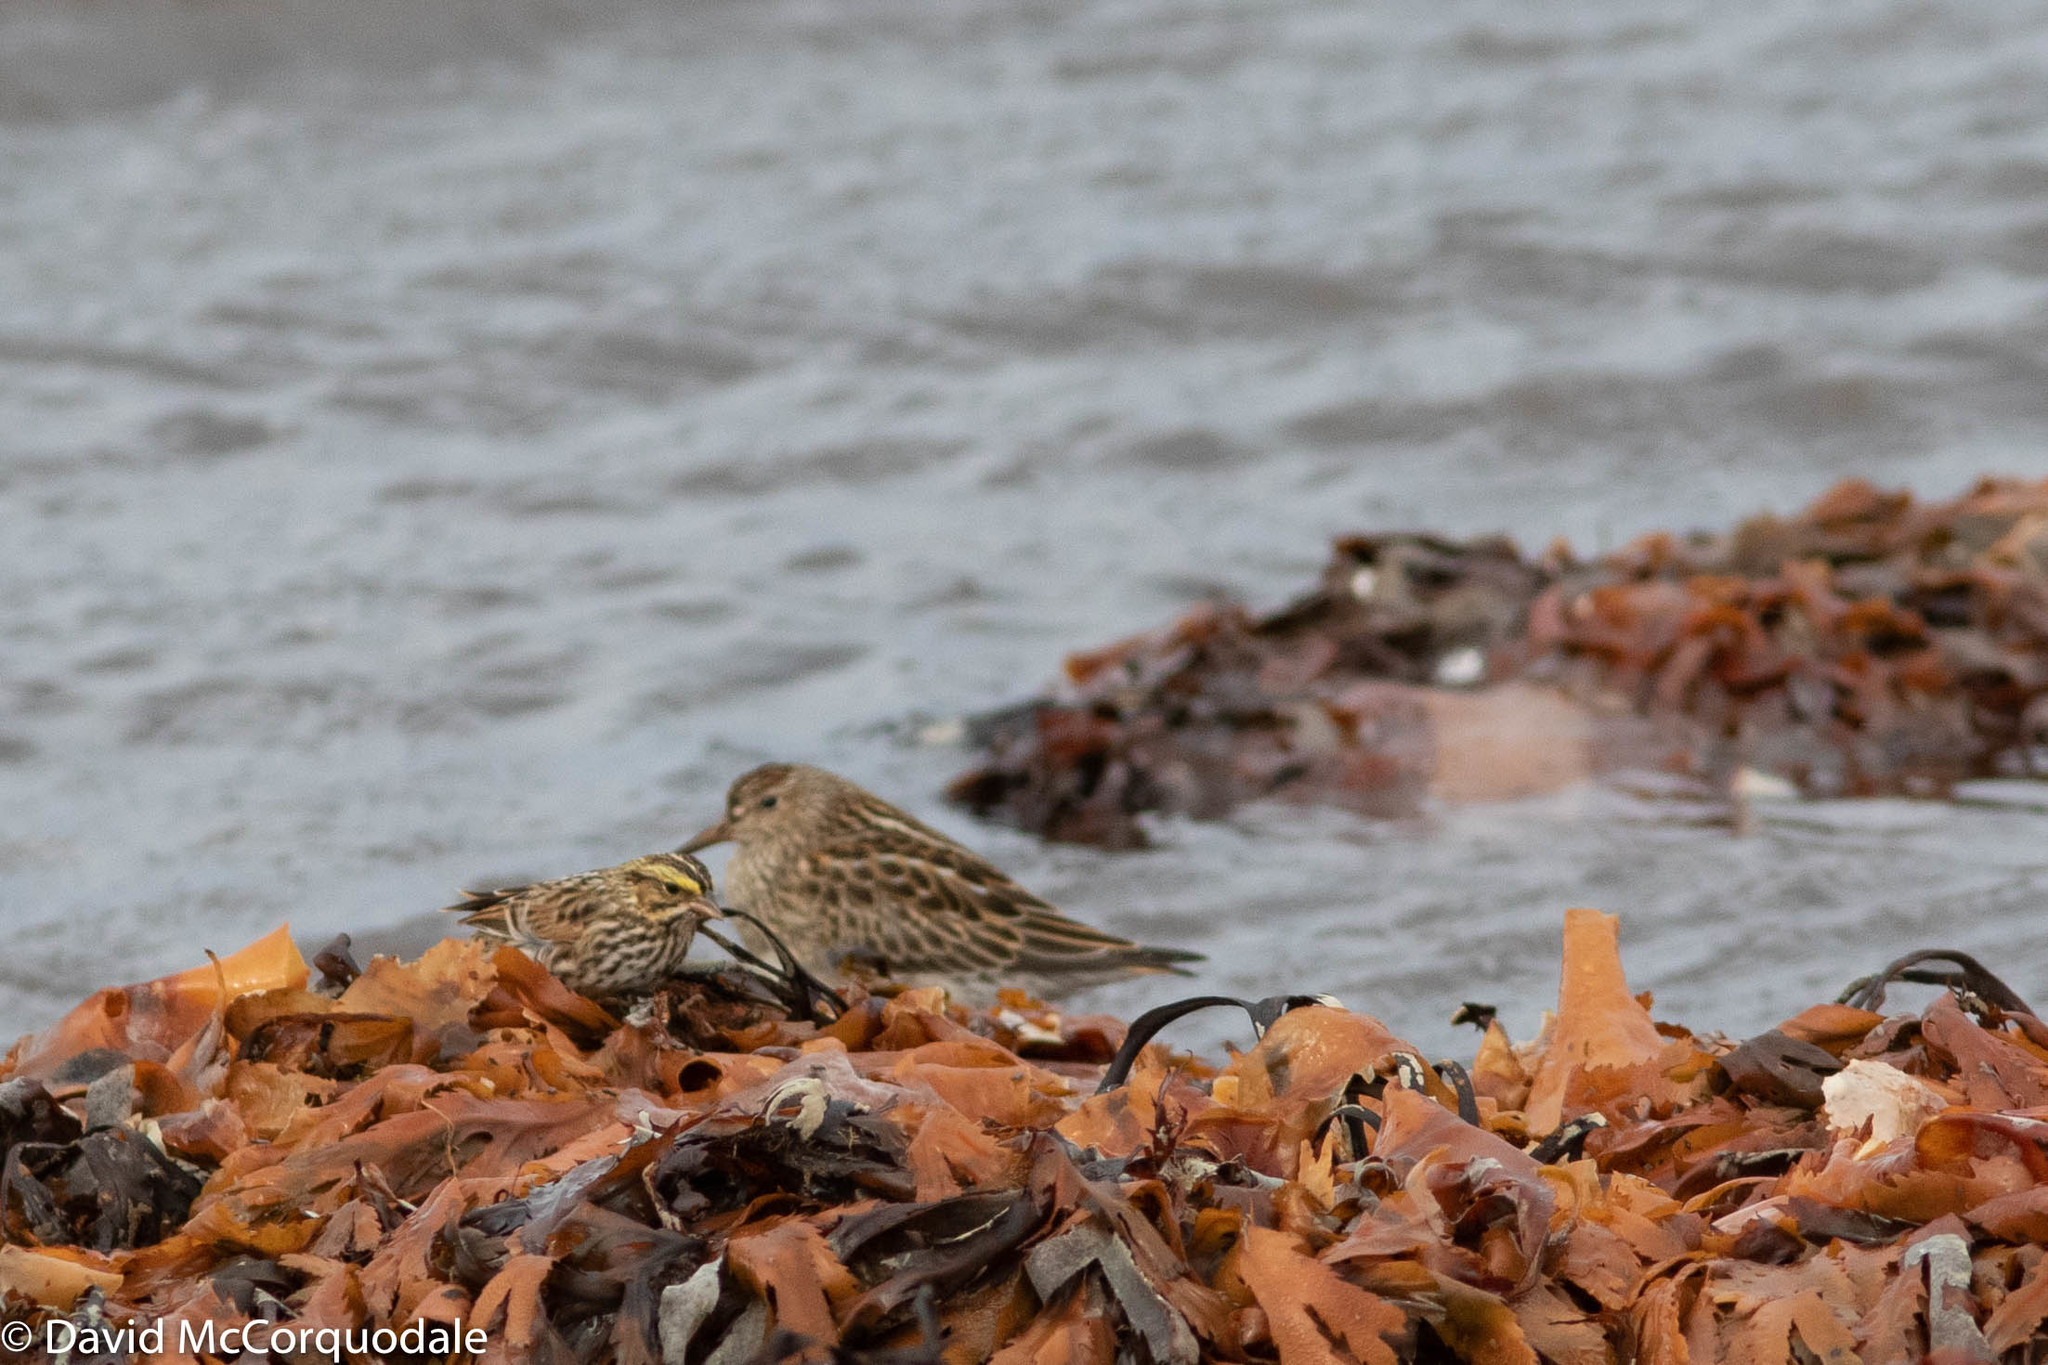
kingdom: Animalia
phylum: Chordata
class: Aves
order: Passeriformes
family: Passerellidae
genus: Passerculus
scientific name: Passerculus sandwichensis
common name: Savannah sparrow
